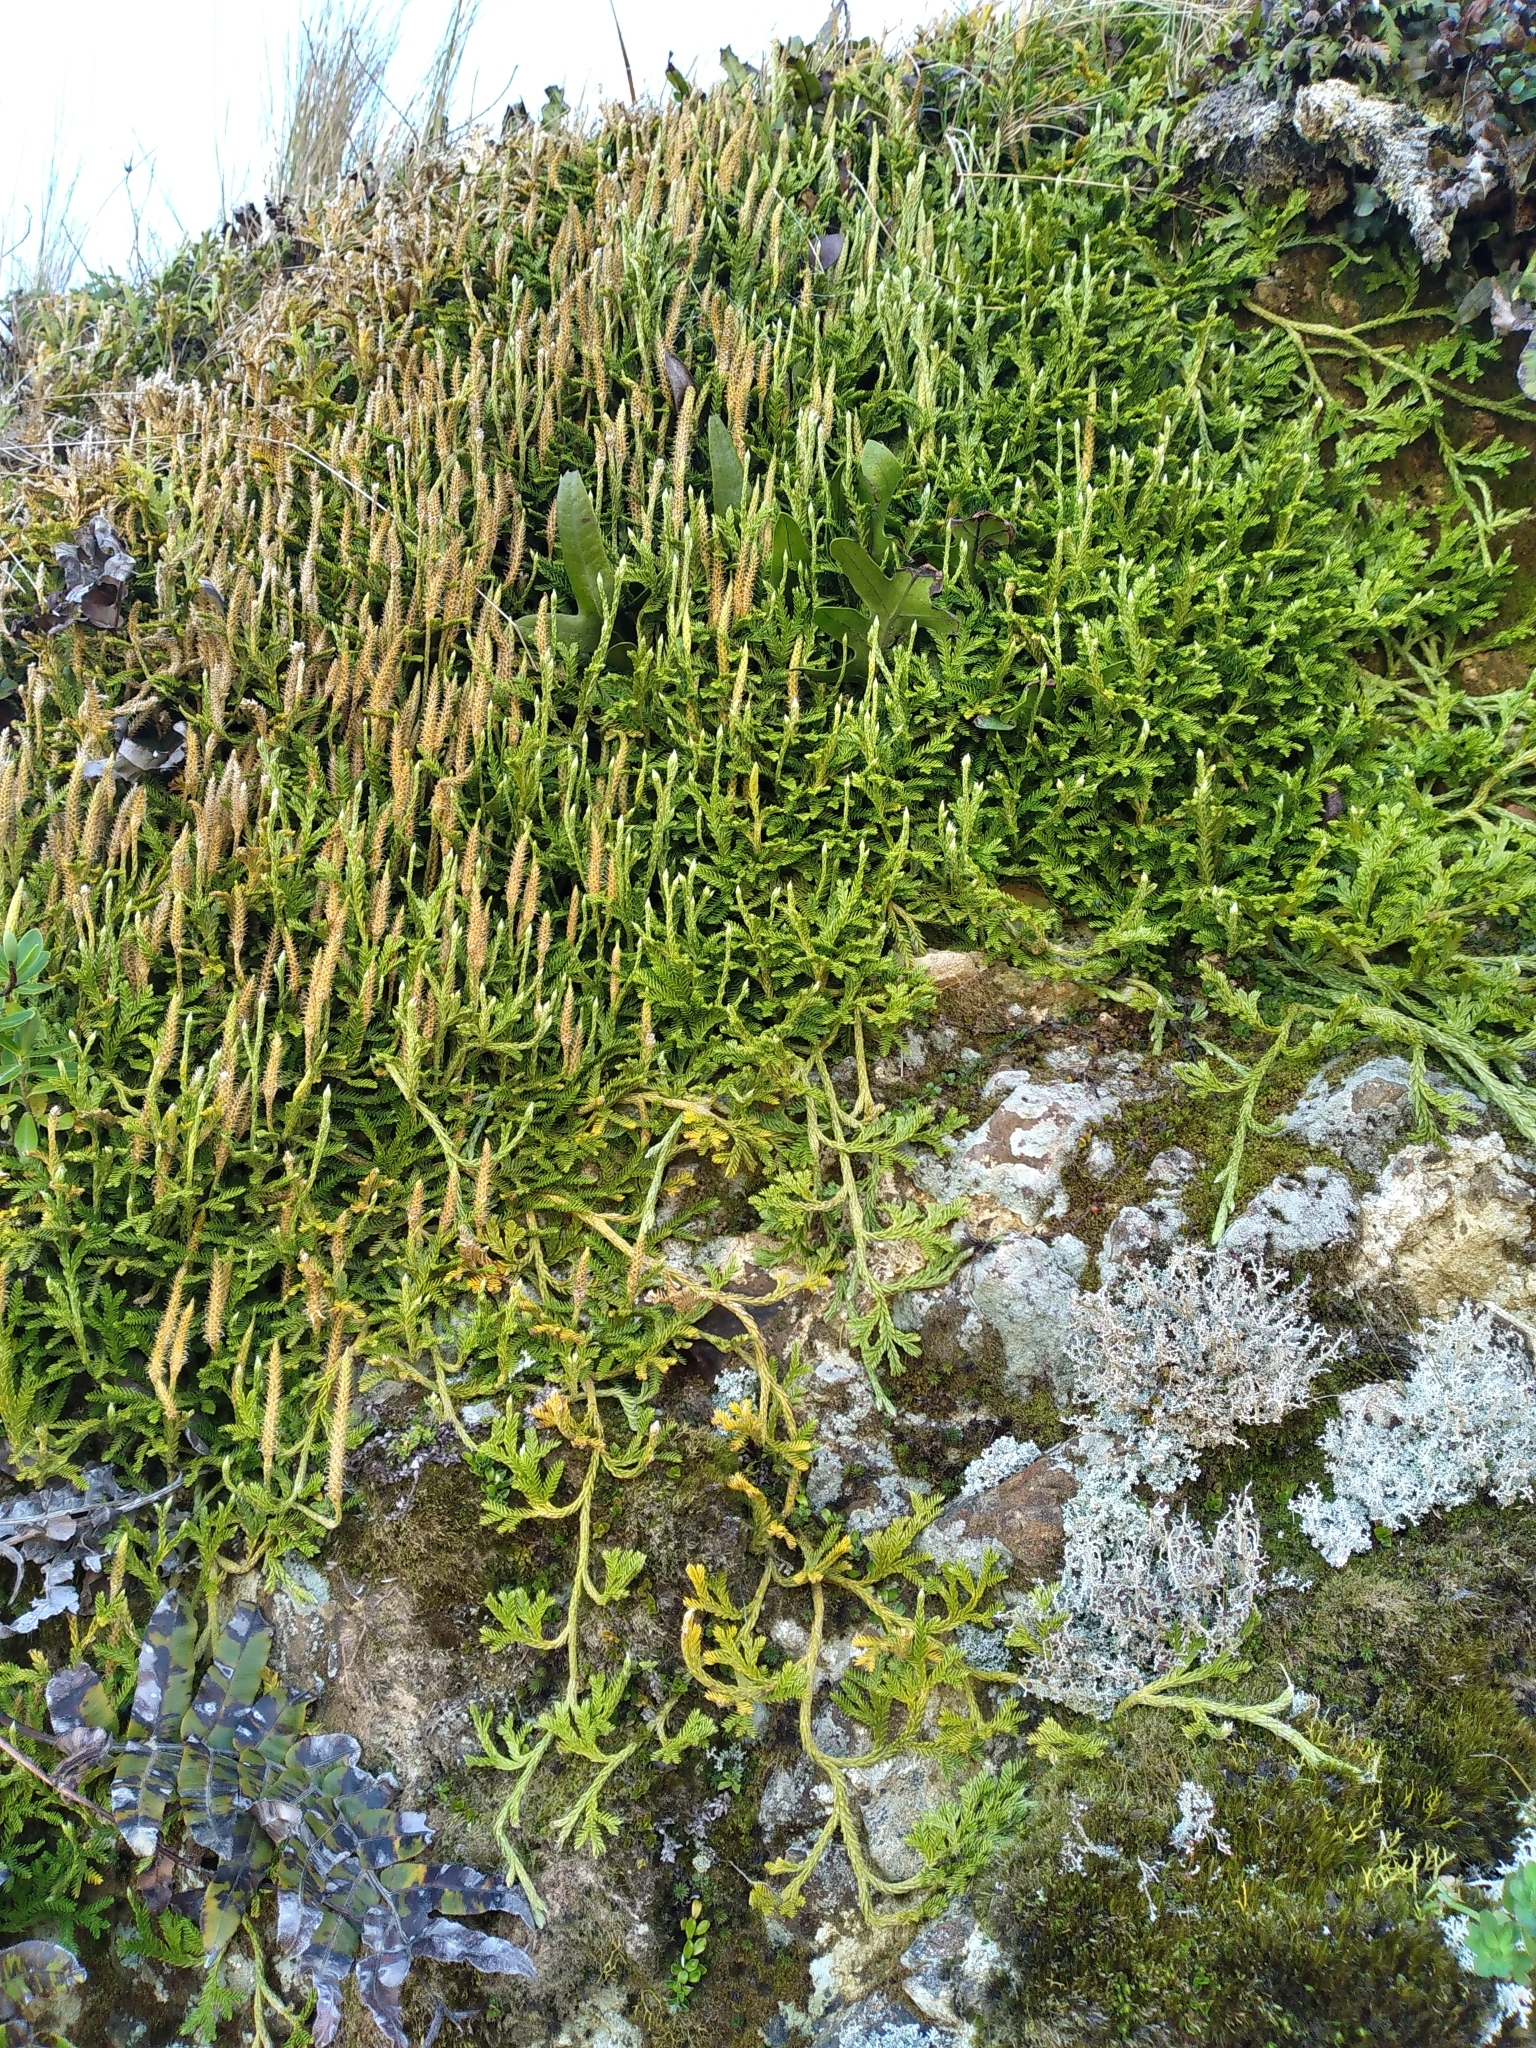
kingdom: Plantae
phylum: Tracheophyta
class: Lycopodiopsida
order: Lycopodiales
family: Lycopodiaceae
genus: Diphasium
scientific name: Diphasium scariosum
